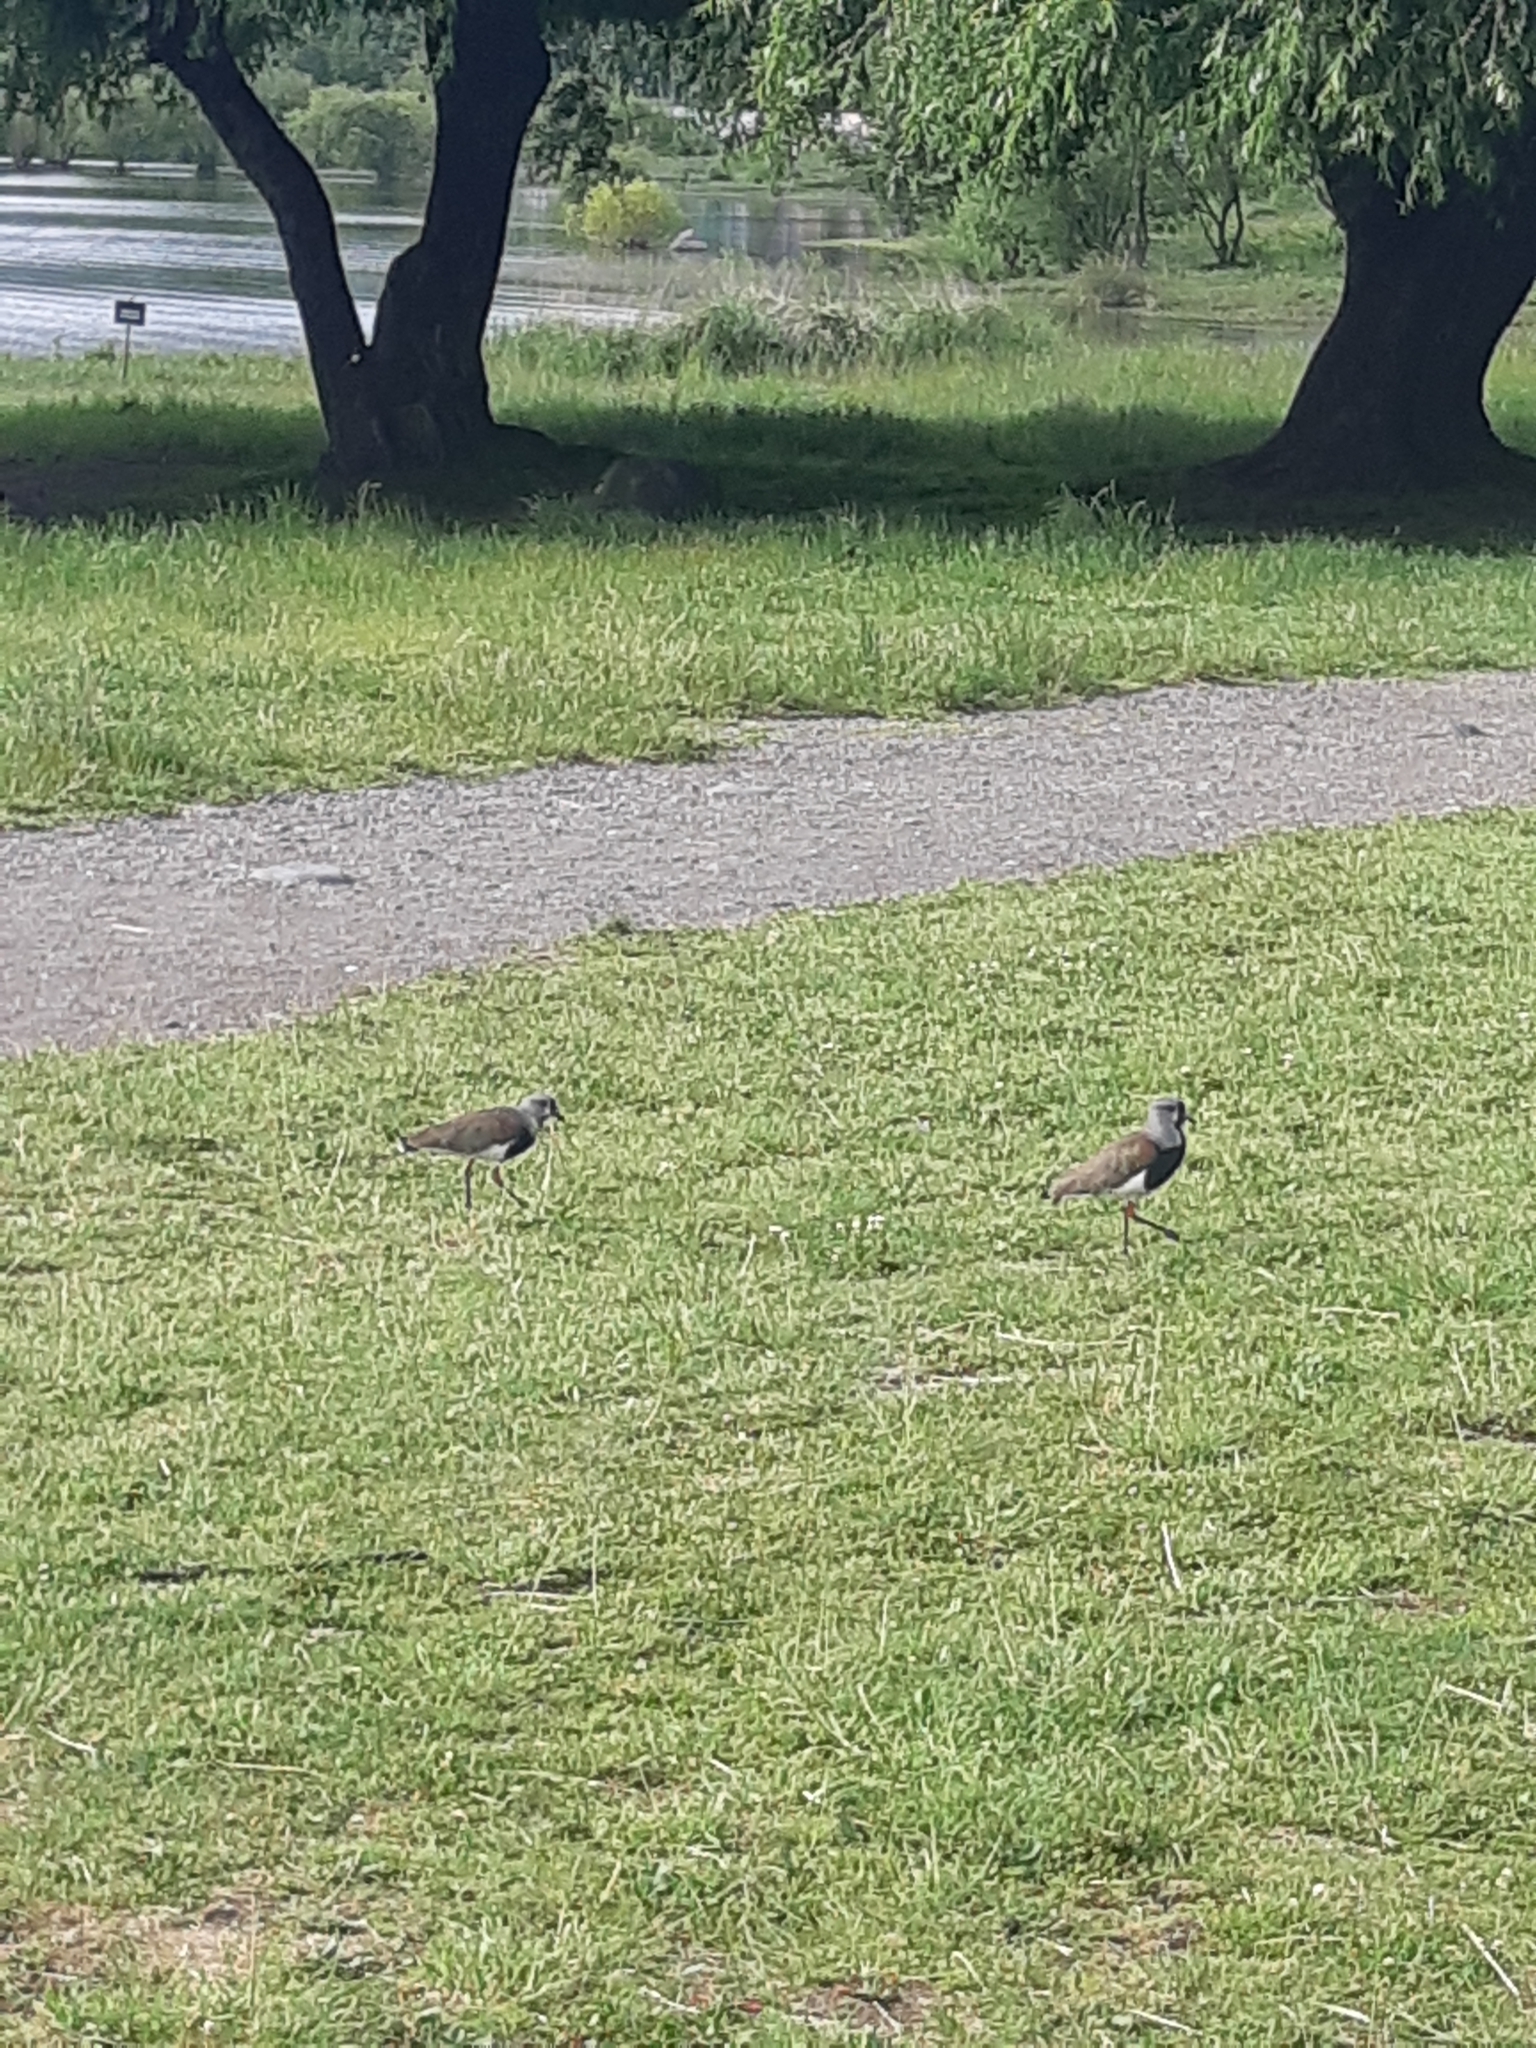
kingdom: Animalia
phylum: Chordata
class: Aves
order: Charadriiformes
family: Charadriidae
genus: Vanellus
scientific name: Vanellus chilensis
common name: Southern lapwing
